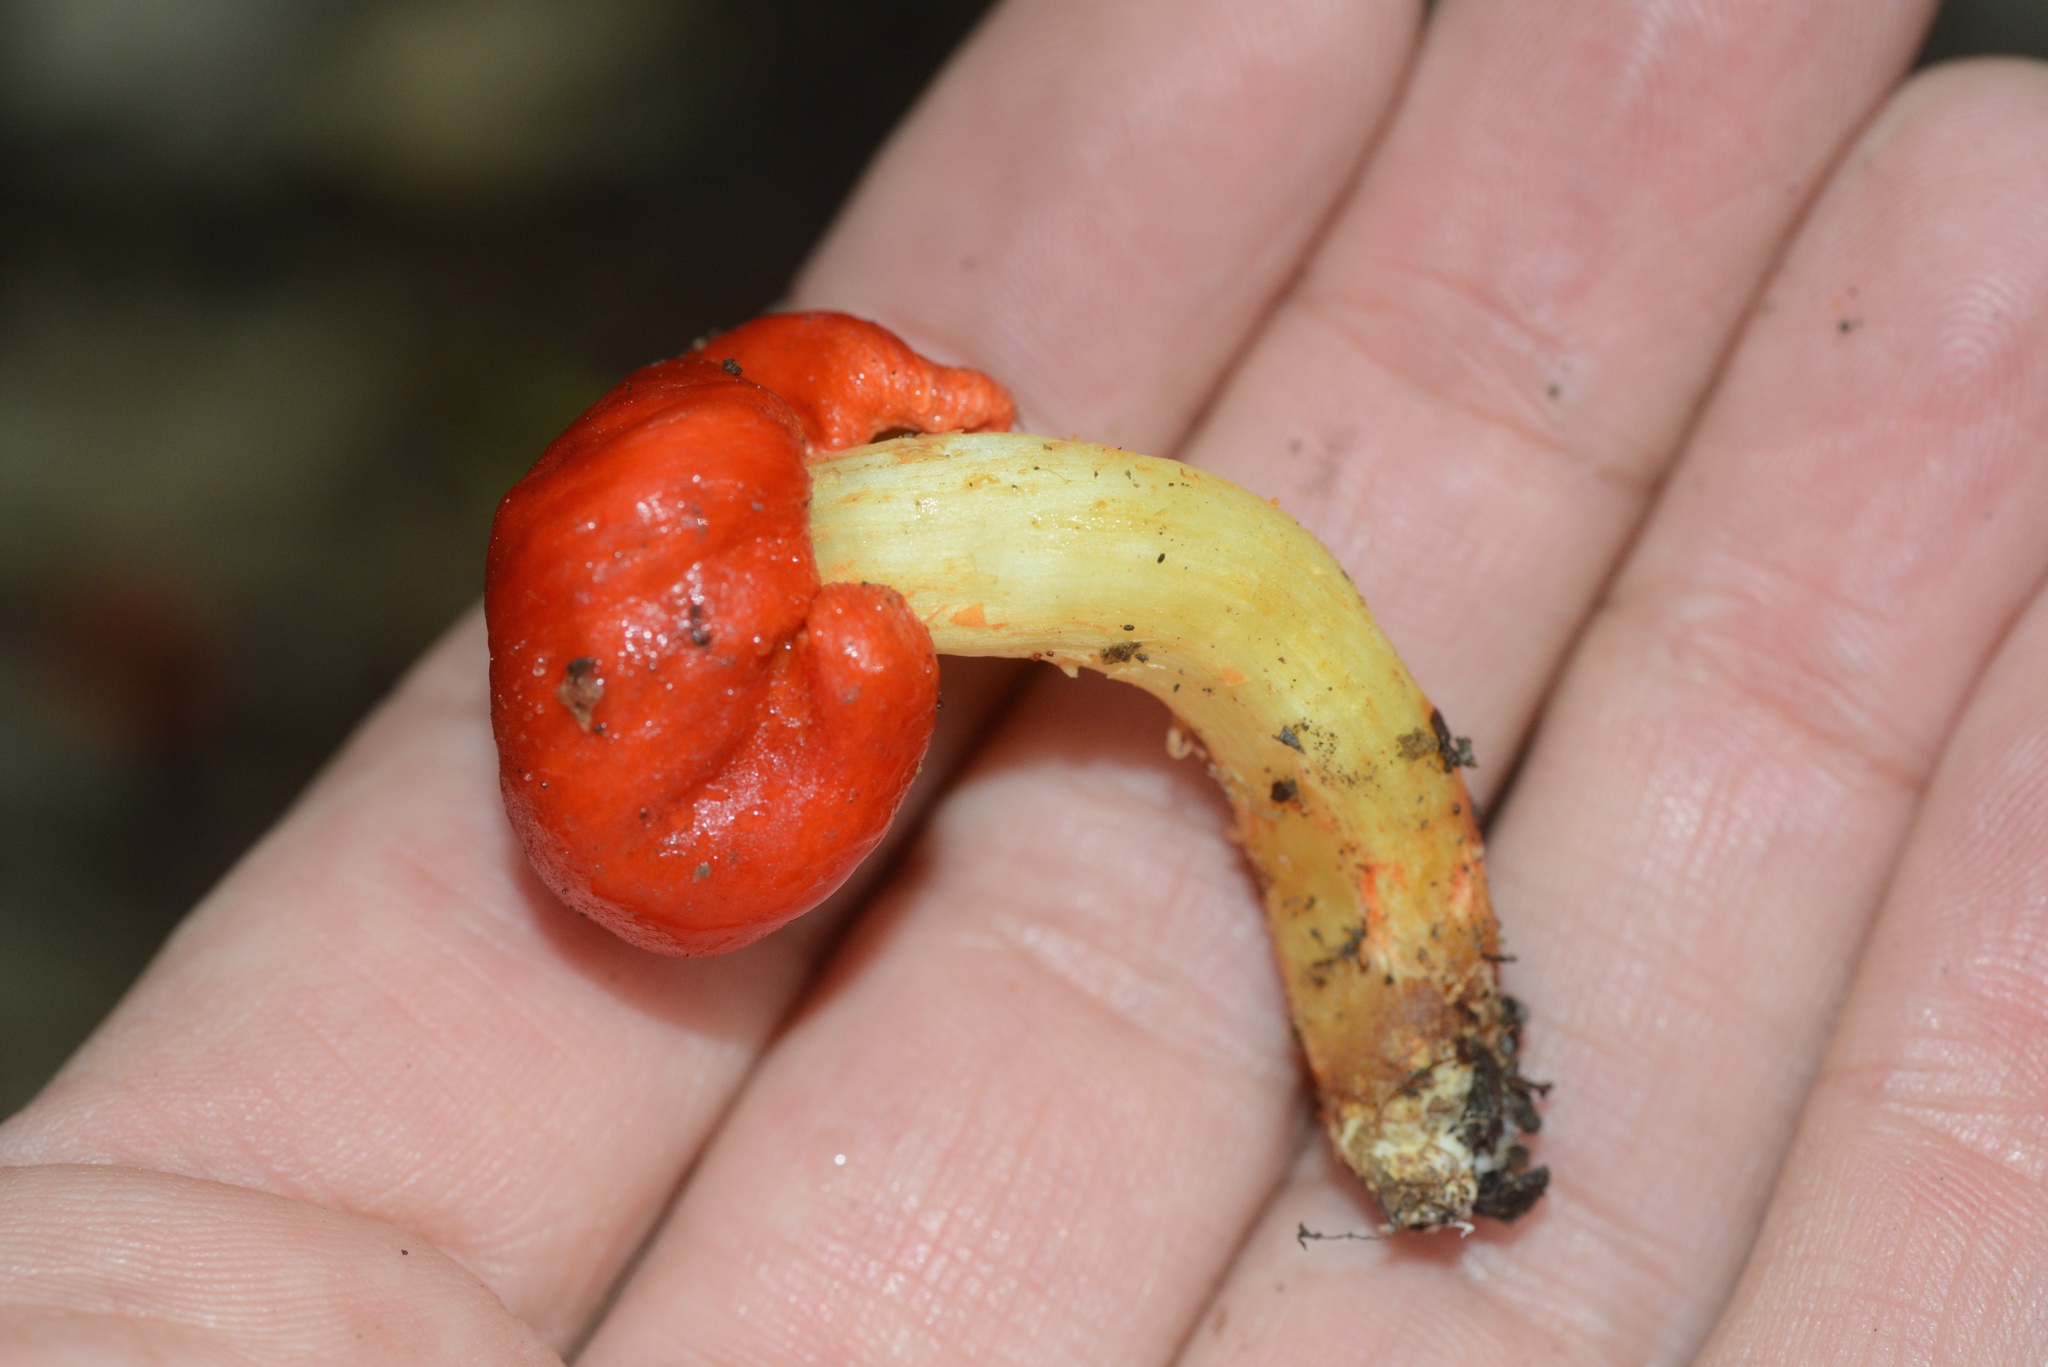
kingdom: Fungi
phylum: Basidiomycota
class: Agaricomycetes
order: Agaricales
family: Strophariaceae
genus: Leratiomyces
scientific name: Leratiomyces erythrocephalus
